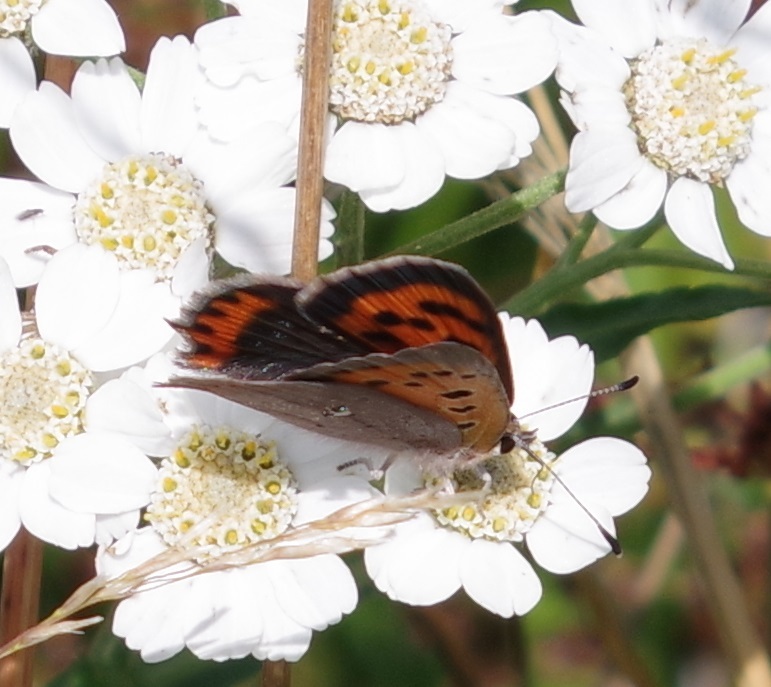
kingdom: Animalia
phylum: Arthropoda
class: Insecta
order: Lepidoptera
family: Lycaenidae
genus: Lycaena
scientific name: Lycaena phlaeas
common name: Small copper
